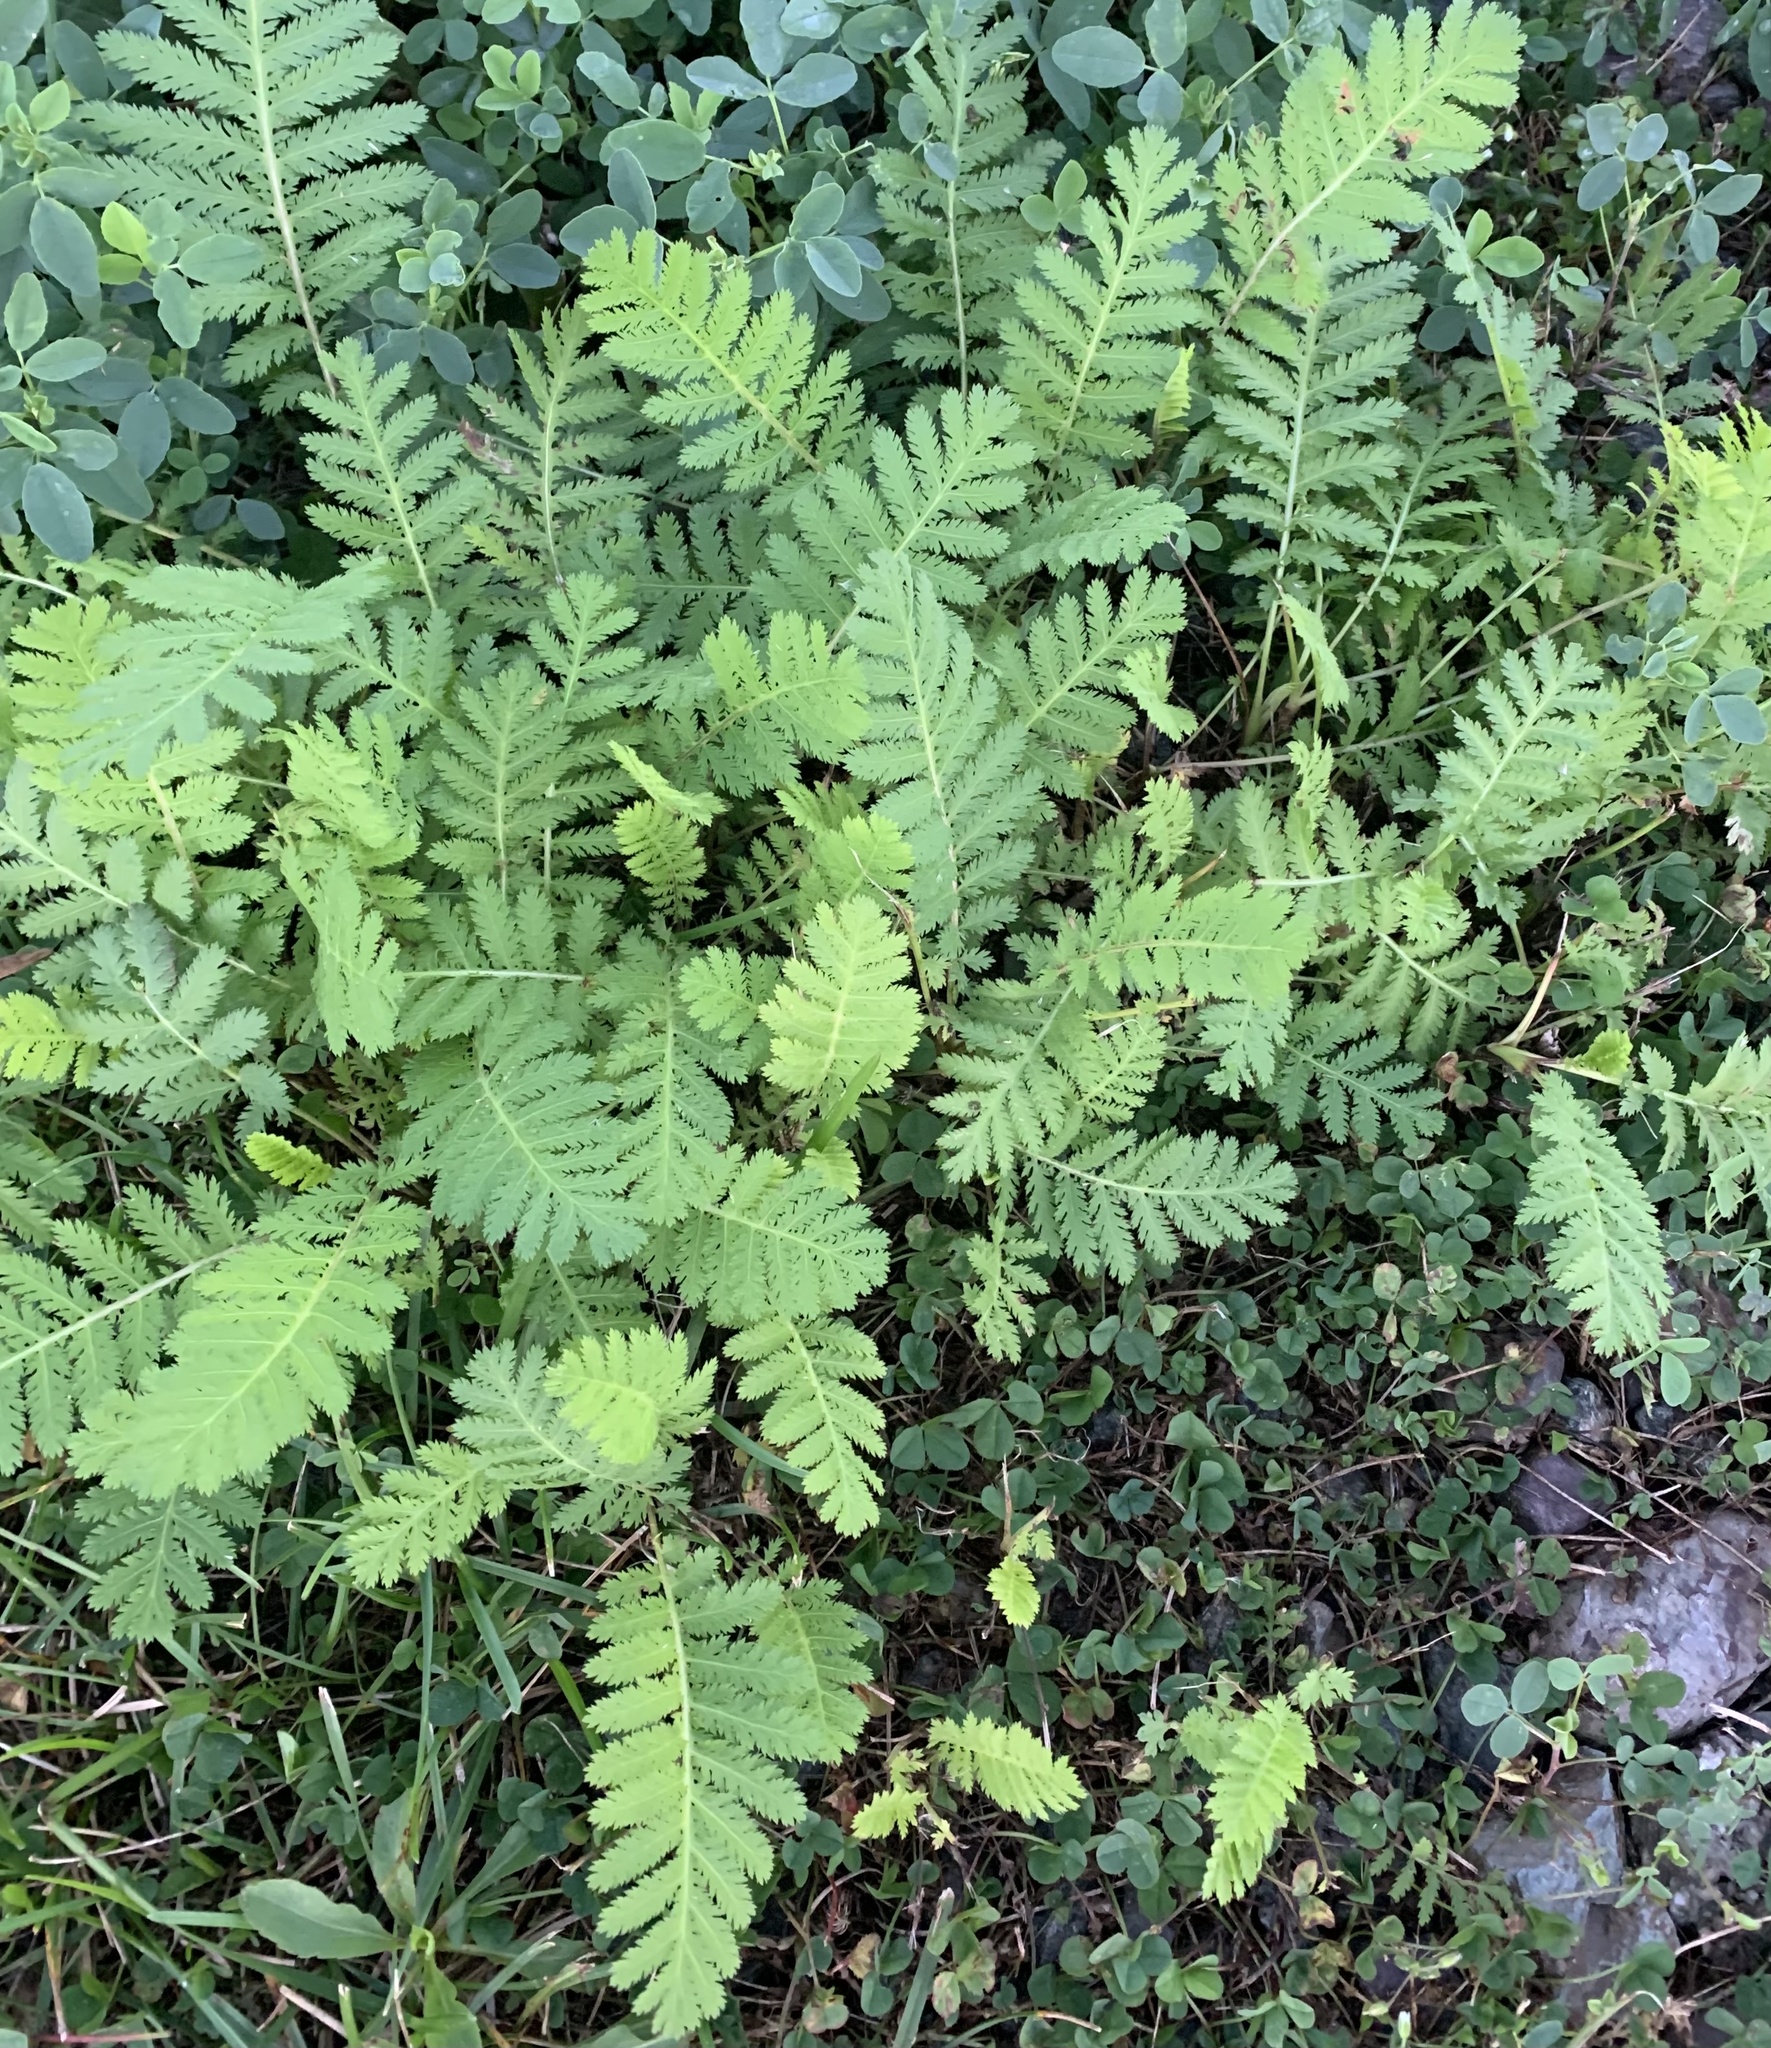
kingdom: Plantae
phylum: Tracheophyta
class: Magnoliopsida
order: Asterales
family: Asteraceae
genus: Tanacetum
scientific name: Tanacetum vulgare
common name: Common tansy
